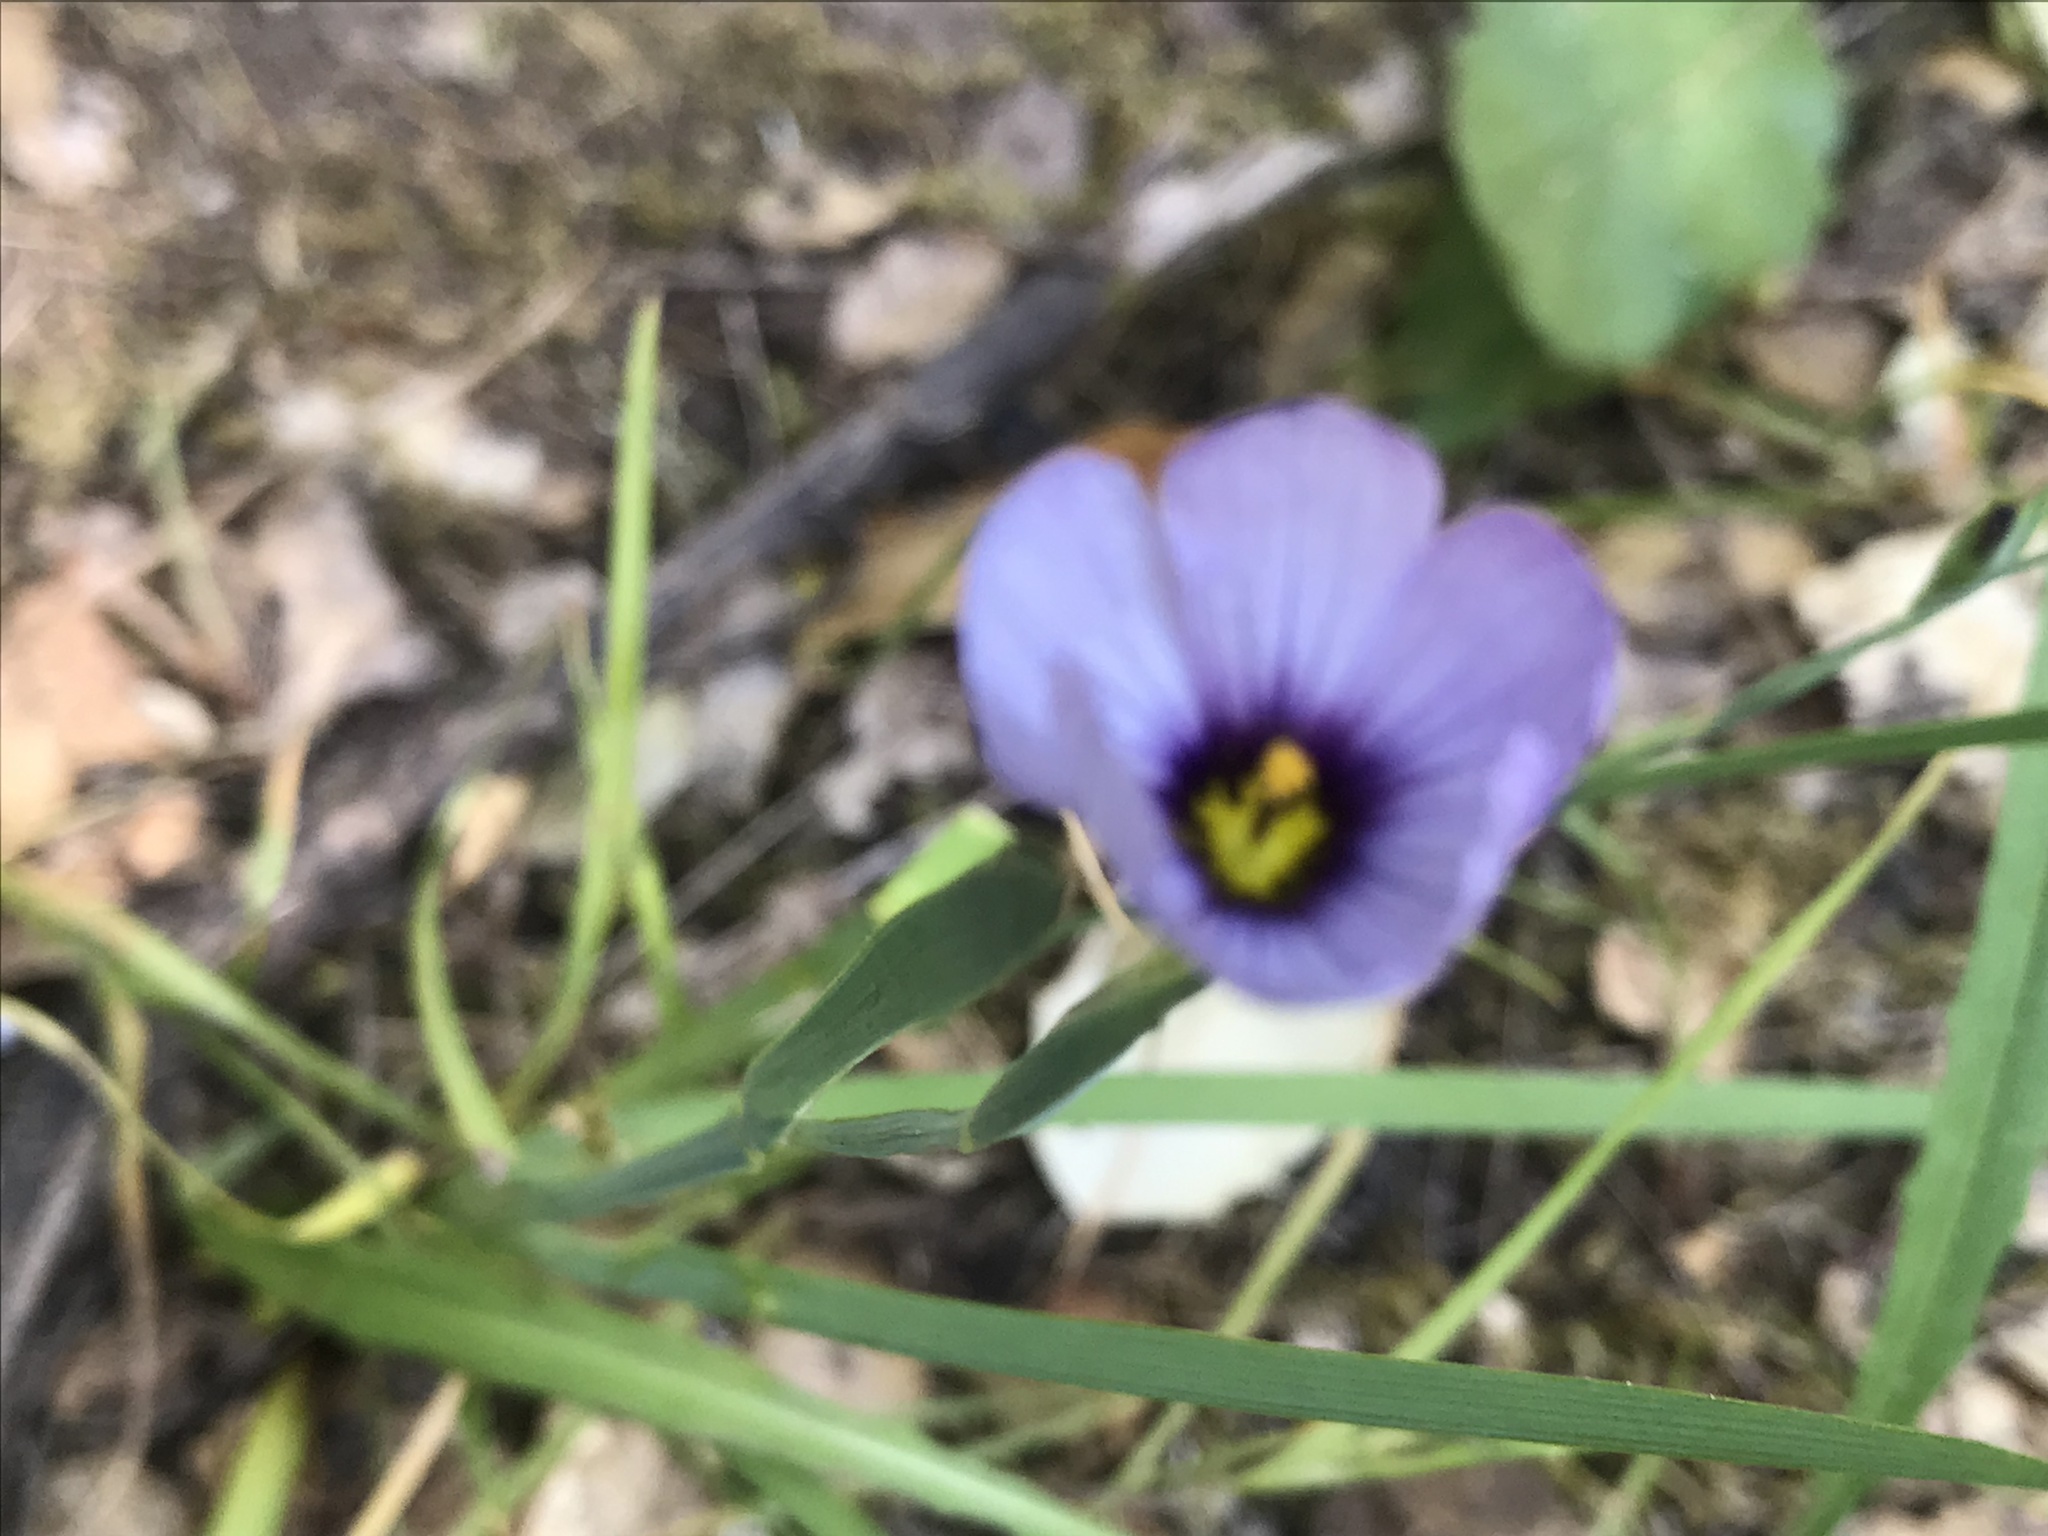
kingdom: Plantae
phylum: Tracheophyta
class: Liliopsida
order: Asparagales
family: Iridaceae
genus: Sisyrinchium
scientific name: Sisyrinchium bellum
